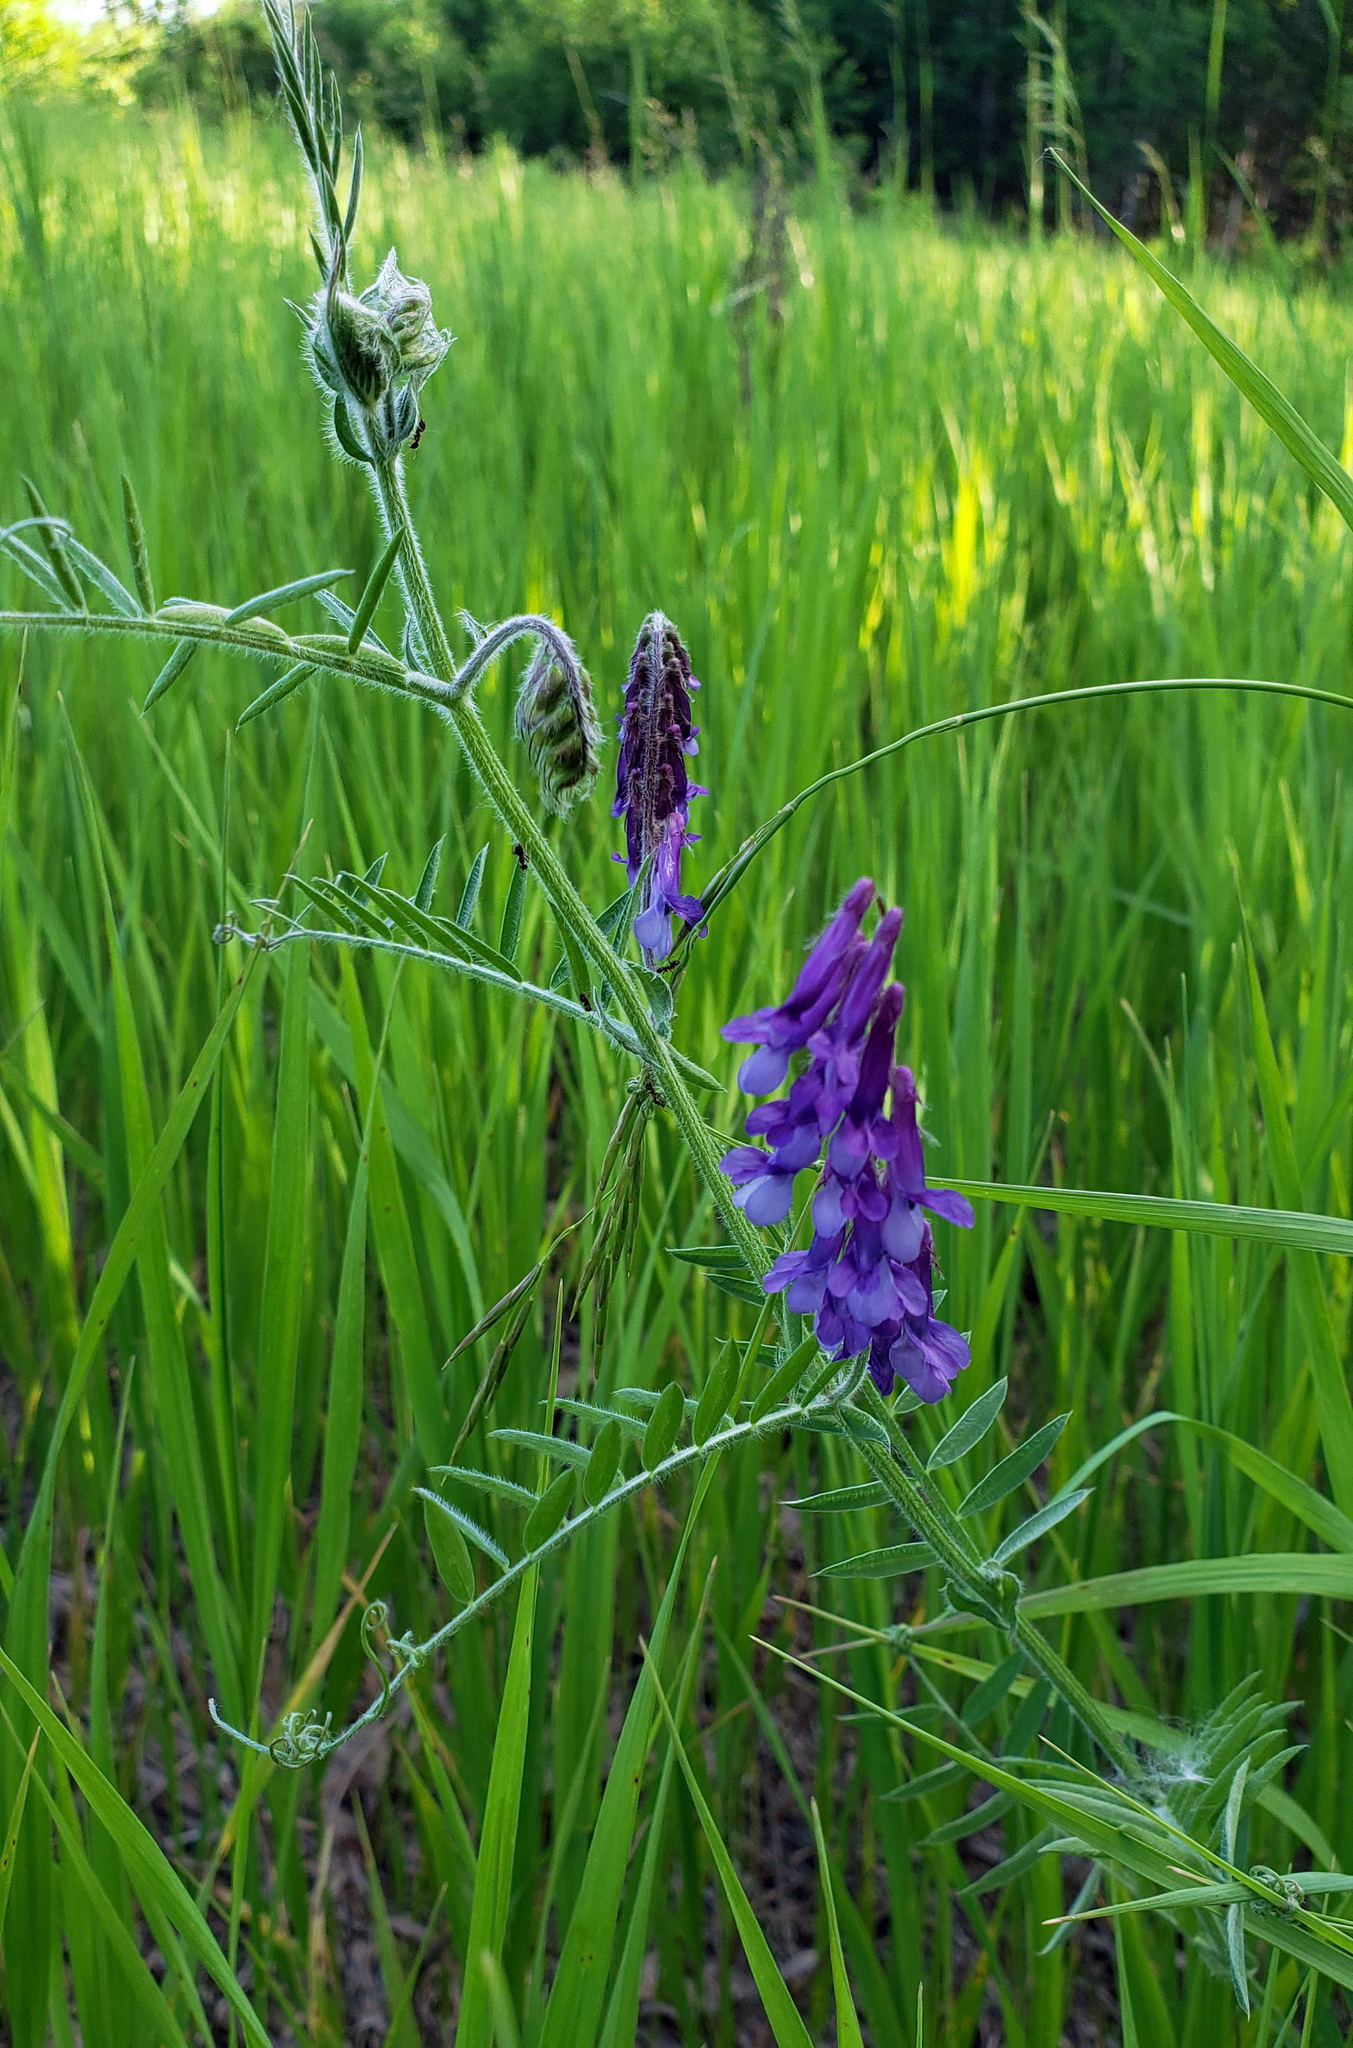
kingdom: Plantae
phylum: Tracheophyta
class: Magnoliopsida
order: Fabales
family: Fabaceae
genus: Vicia
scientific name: Vicia villosa
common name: Fodder vetch
